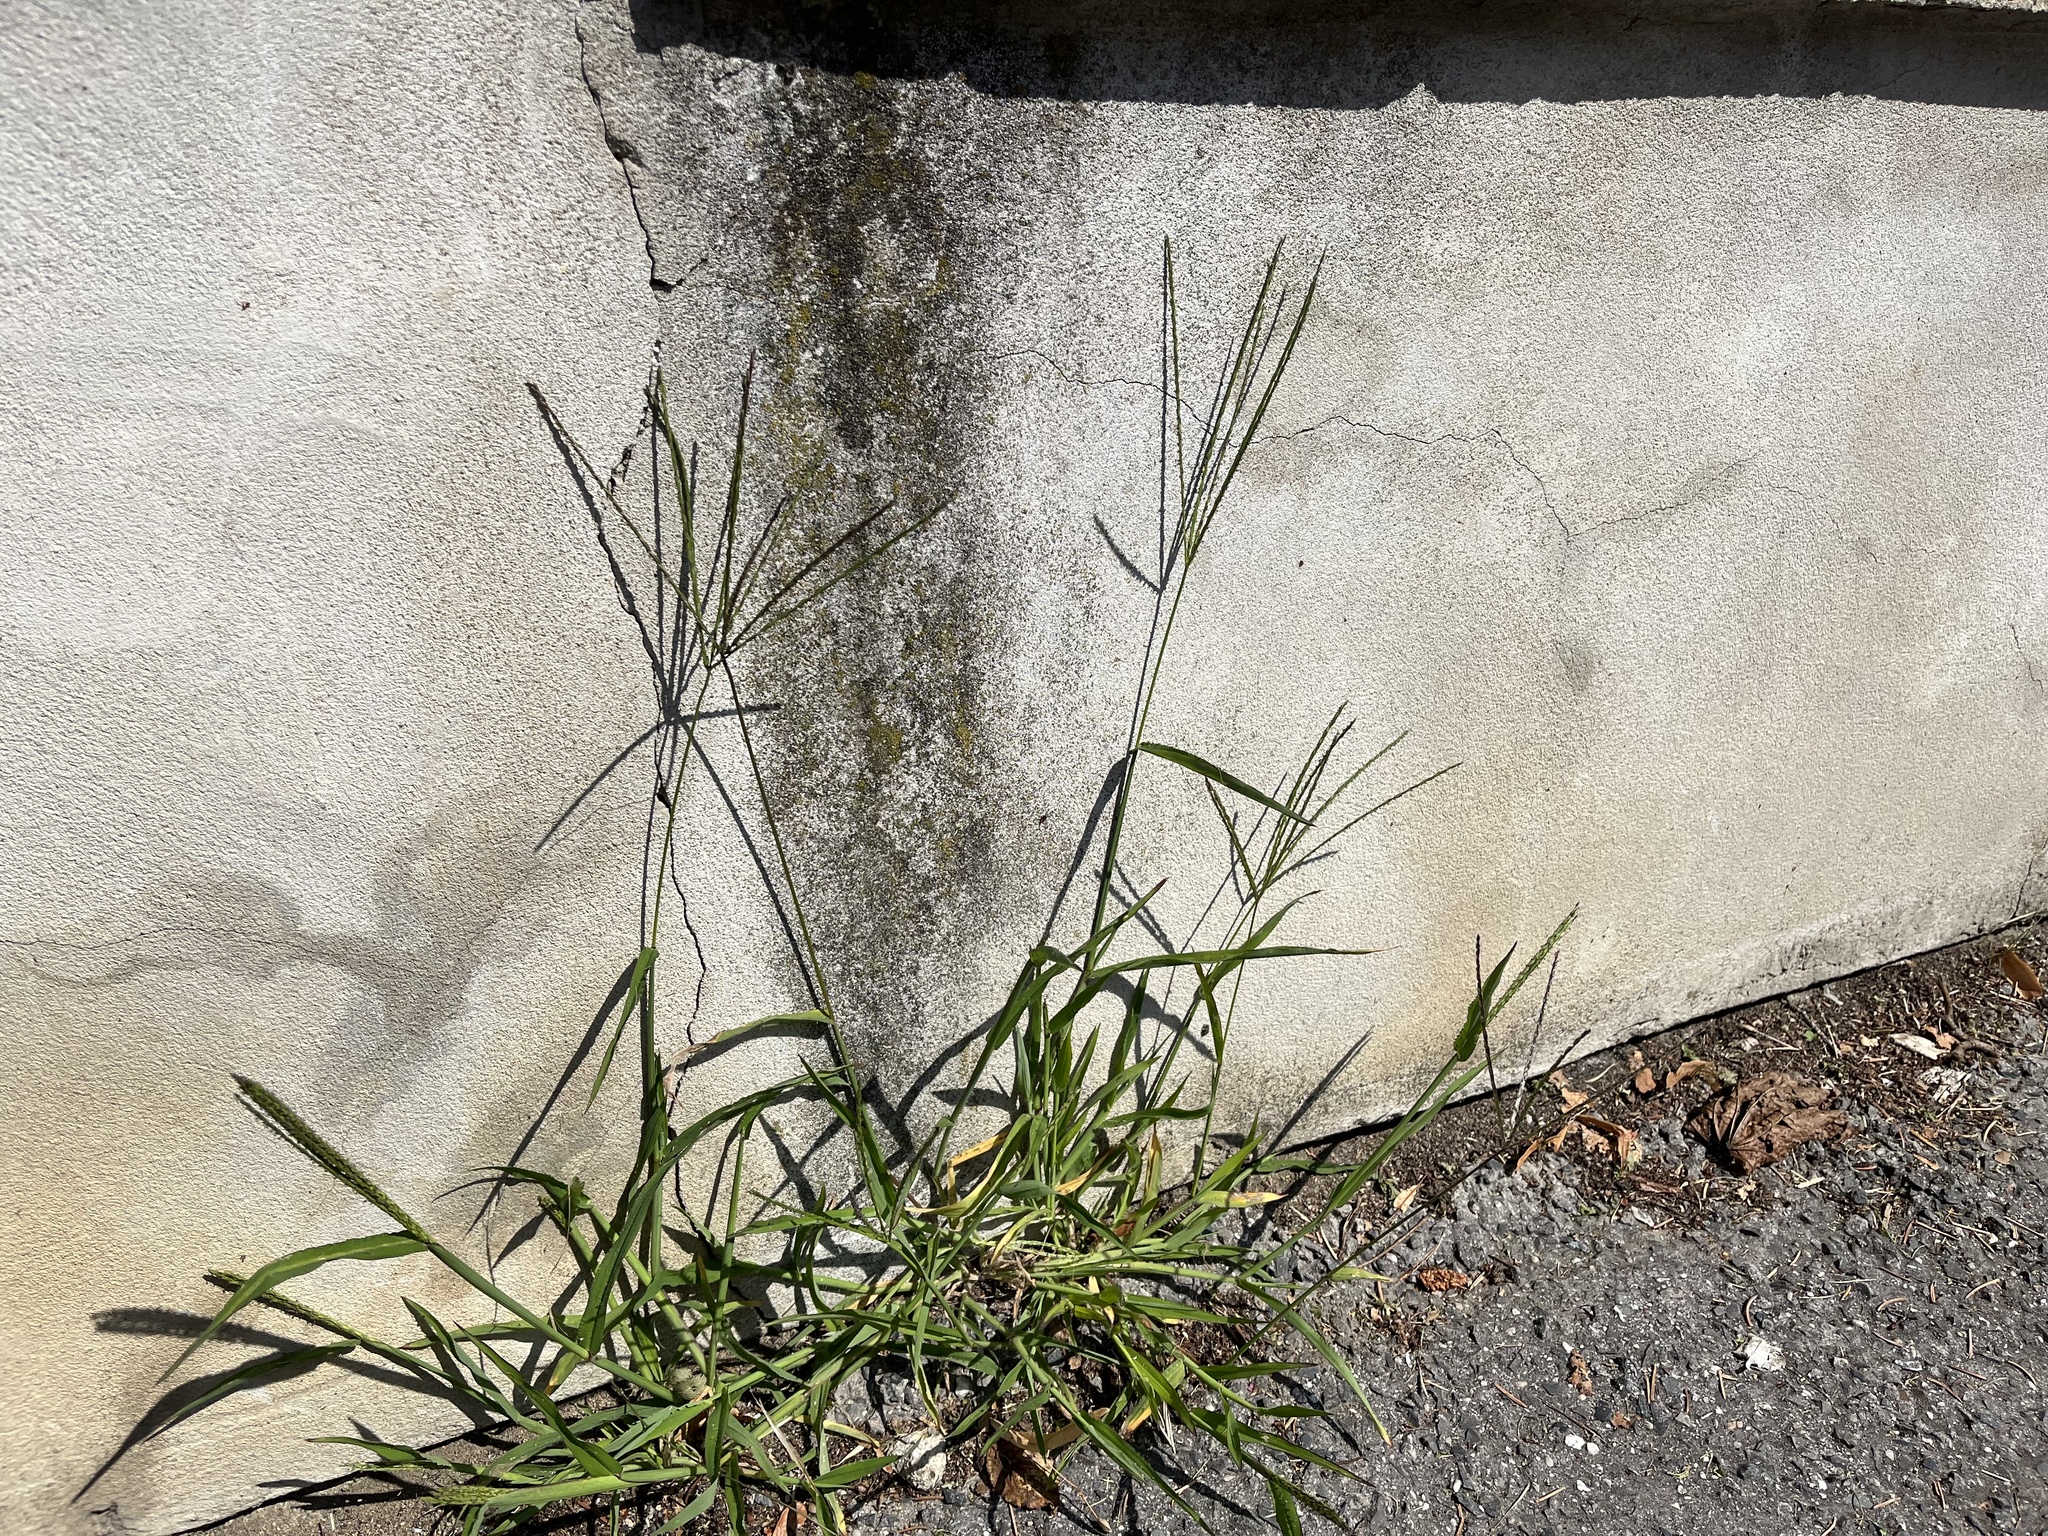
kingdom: Plantae
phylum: Tracheophyta
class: Liliopsida
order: Poales
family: Poaceae
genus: Digitaria
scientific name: Digitaria sanguinalis
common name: Hairy crabgrass
